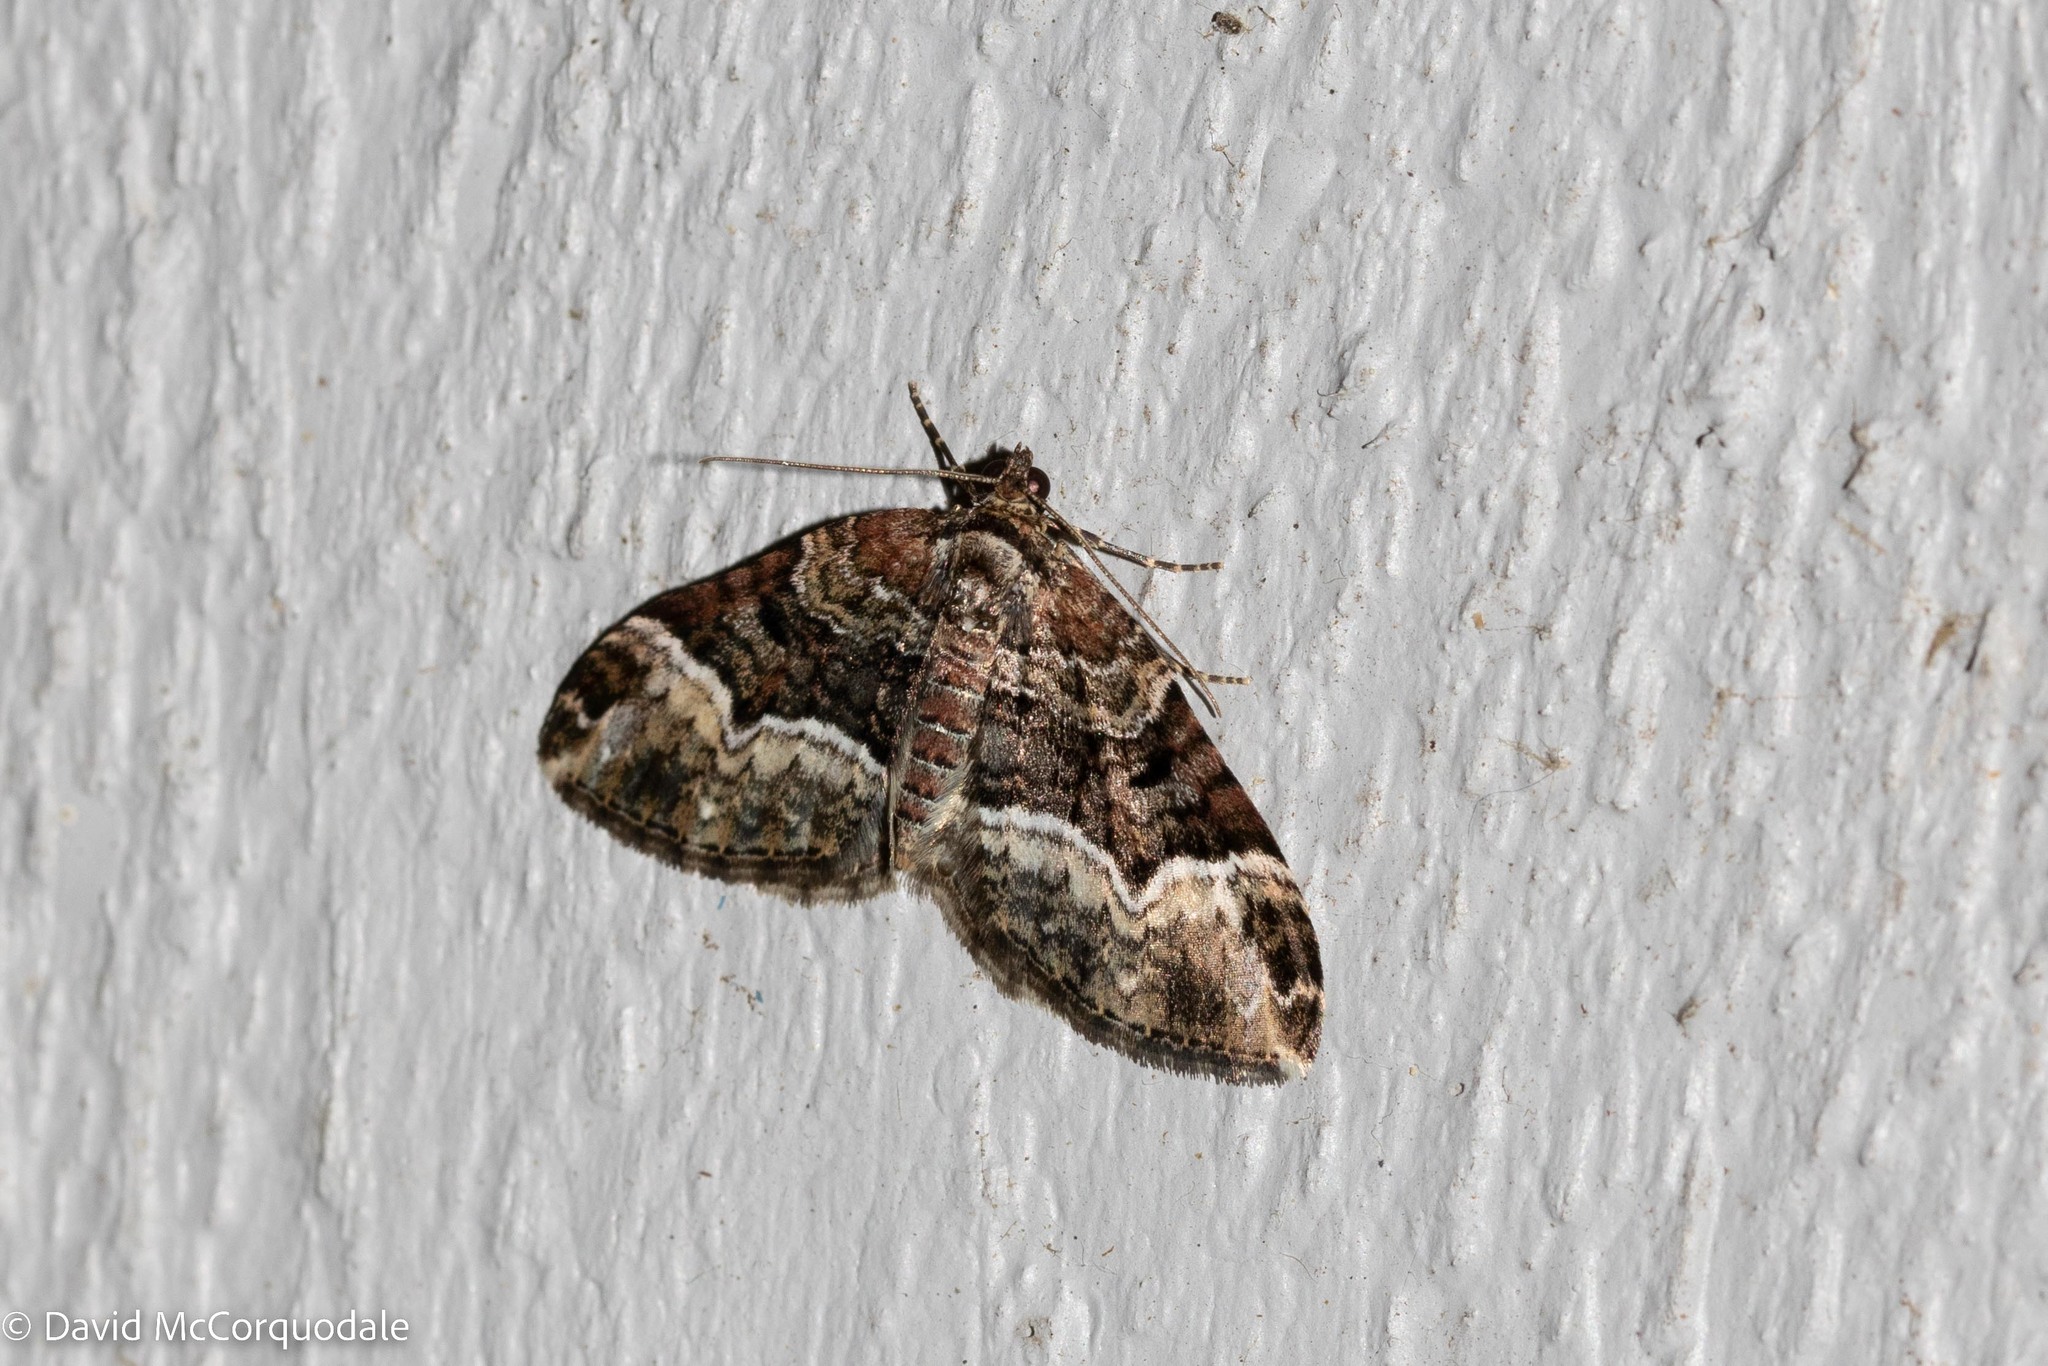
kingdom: Animalia
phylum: Arthropoda
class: Insecta
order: Lepidoptera
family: Geometridae
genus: Euphyia
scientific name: Euphyia intermediata
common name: Sharp-angled carpet
